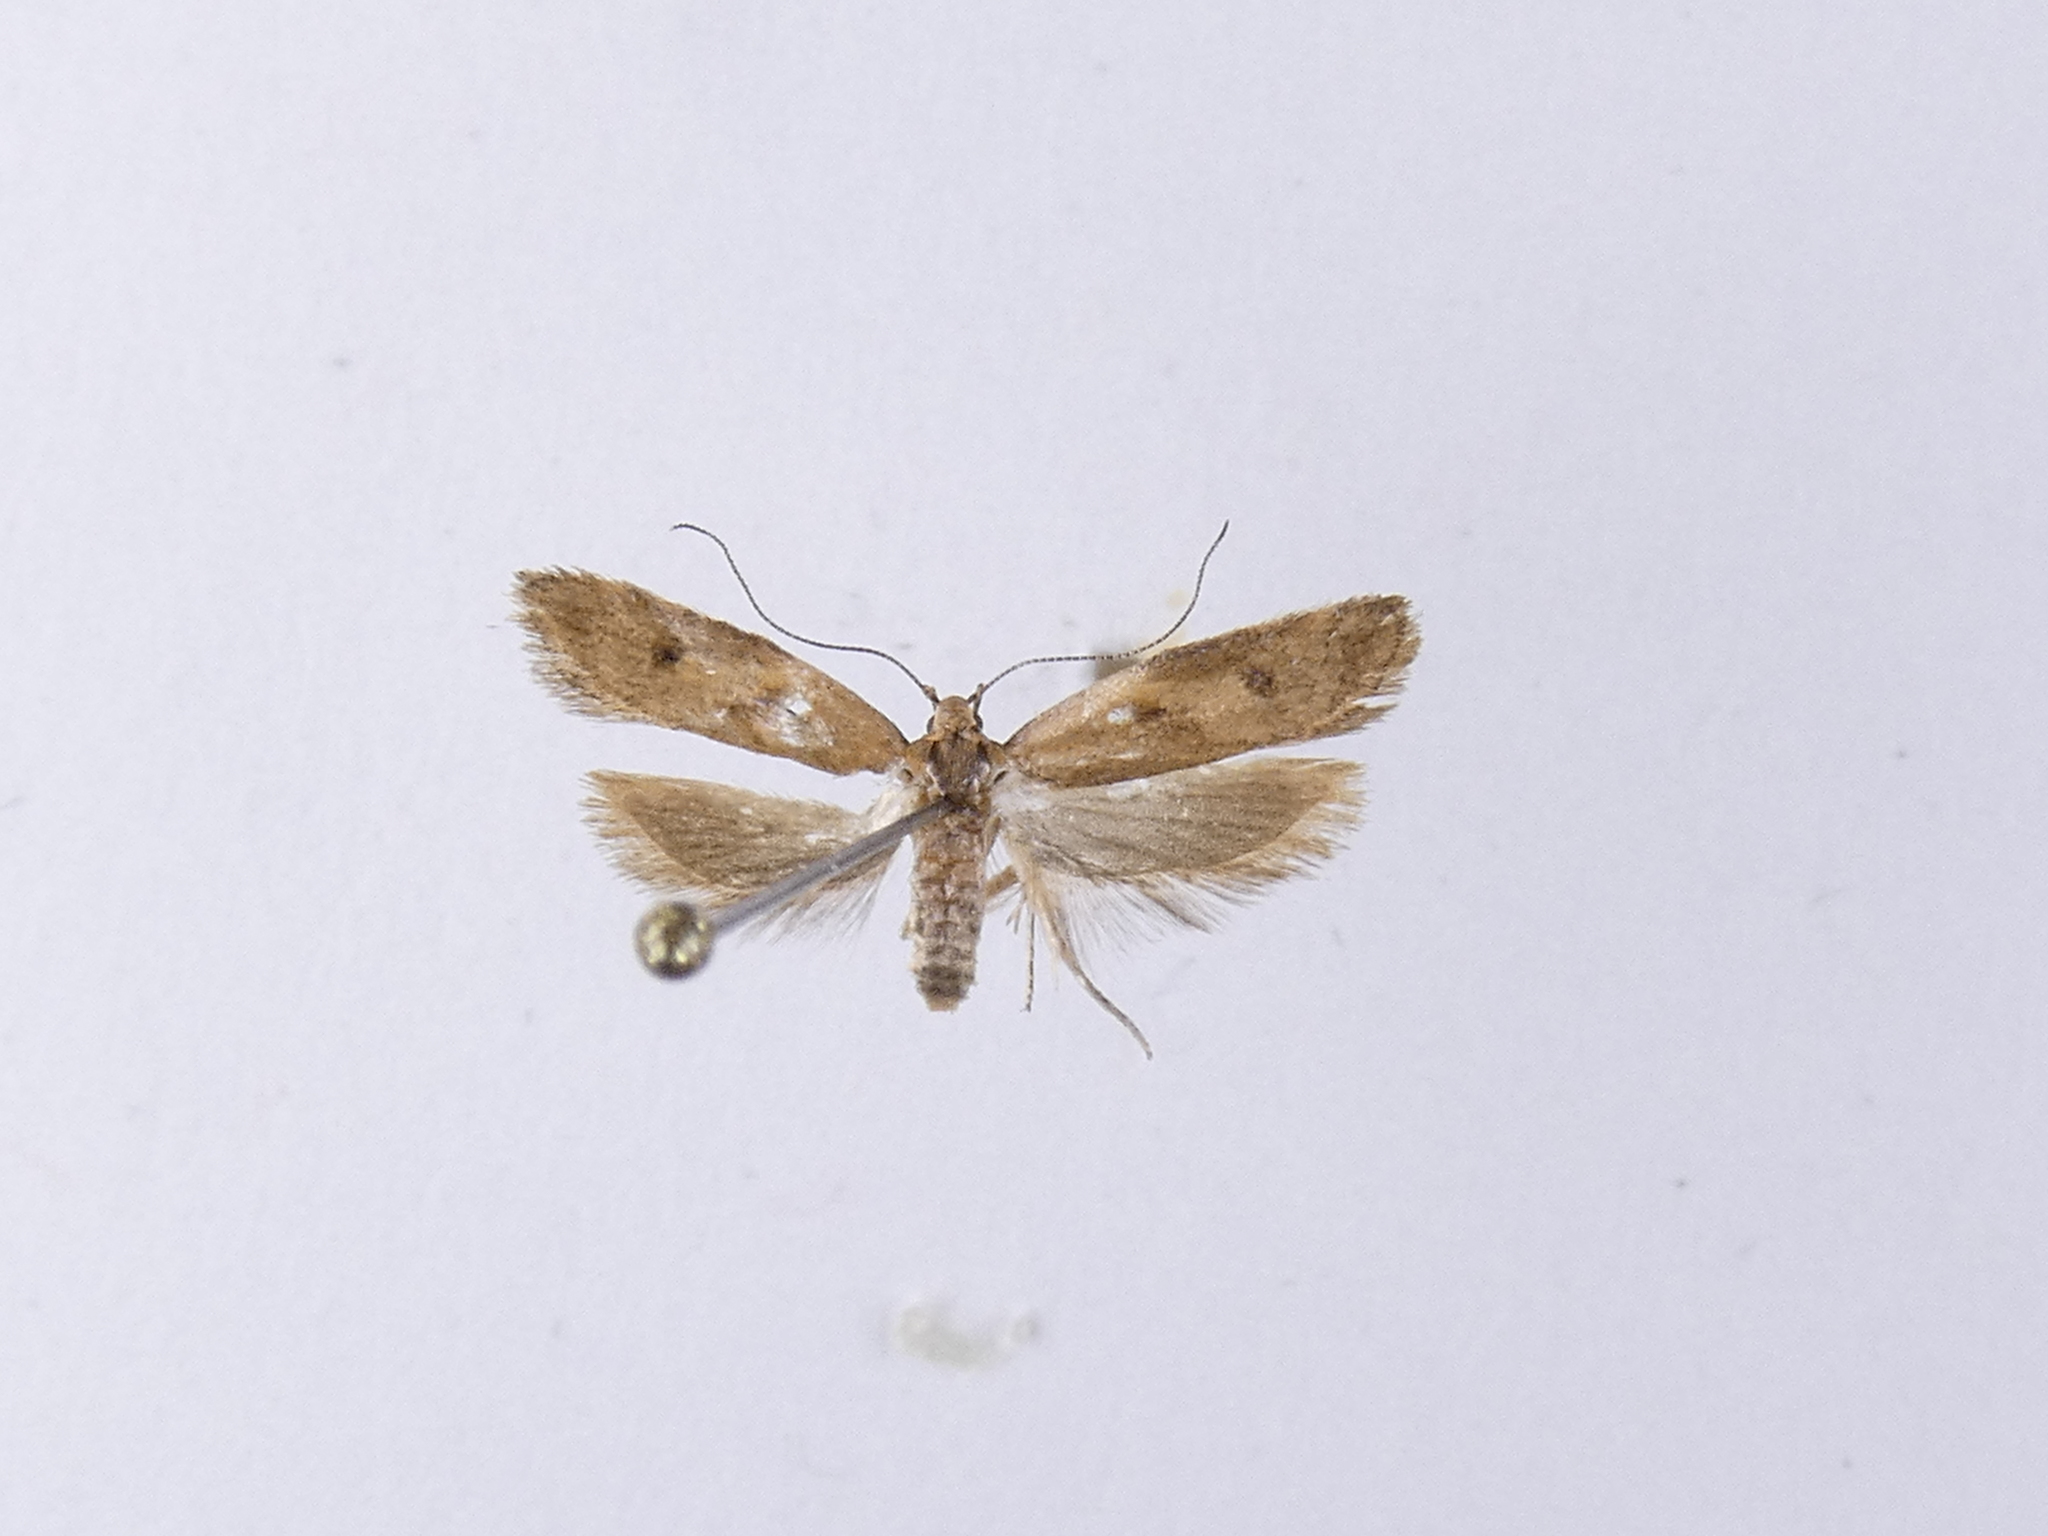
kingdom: Animalia
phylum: Arthropoda
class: Insecta
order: Lepidoptera
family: Oecophoridae
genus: Gymnobathra
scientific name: Gymnobathra tholodella
